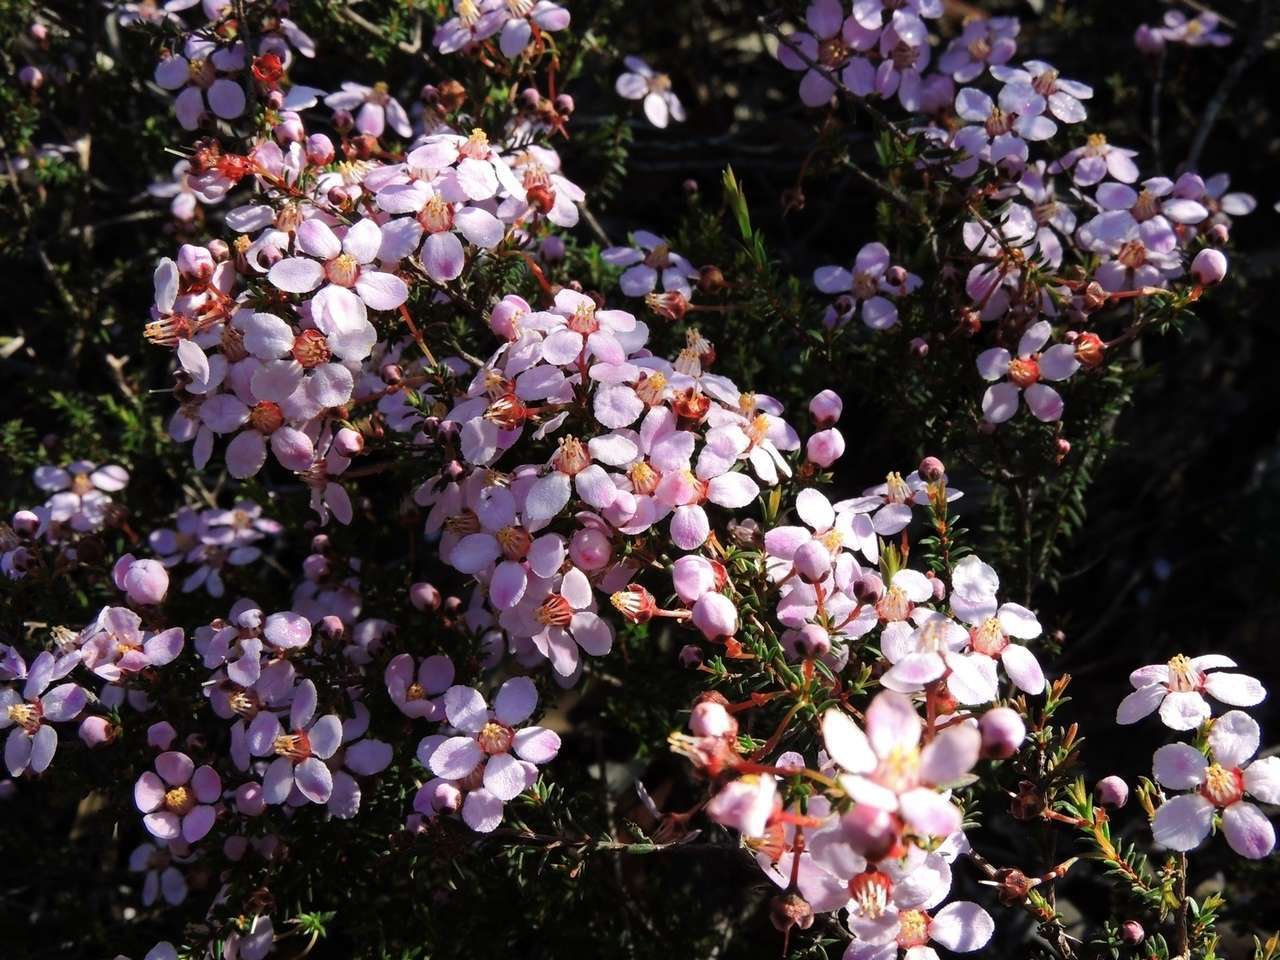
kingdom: Plantae
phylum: Tracheophyta
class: Magnoliopsida
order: Myrtales
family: Myrtaceae
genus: Euryomyrtus
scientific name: Euryomyrtus ramosissima
